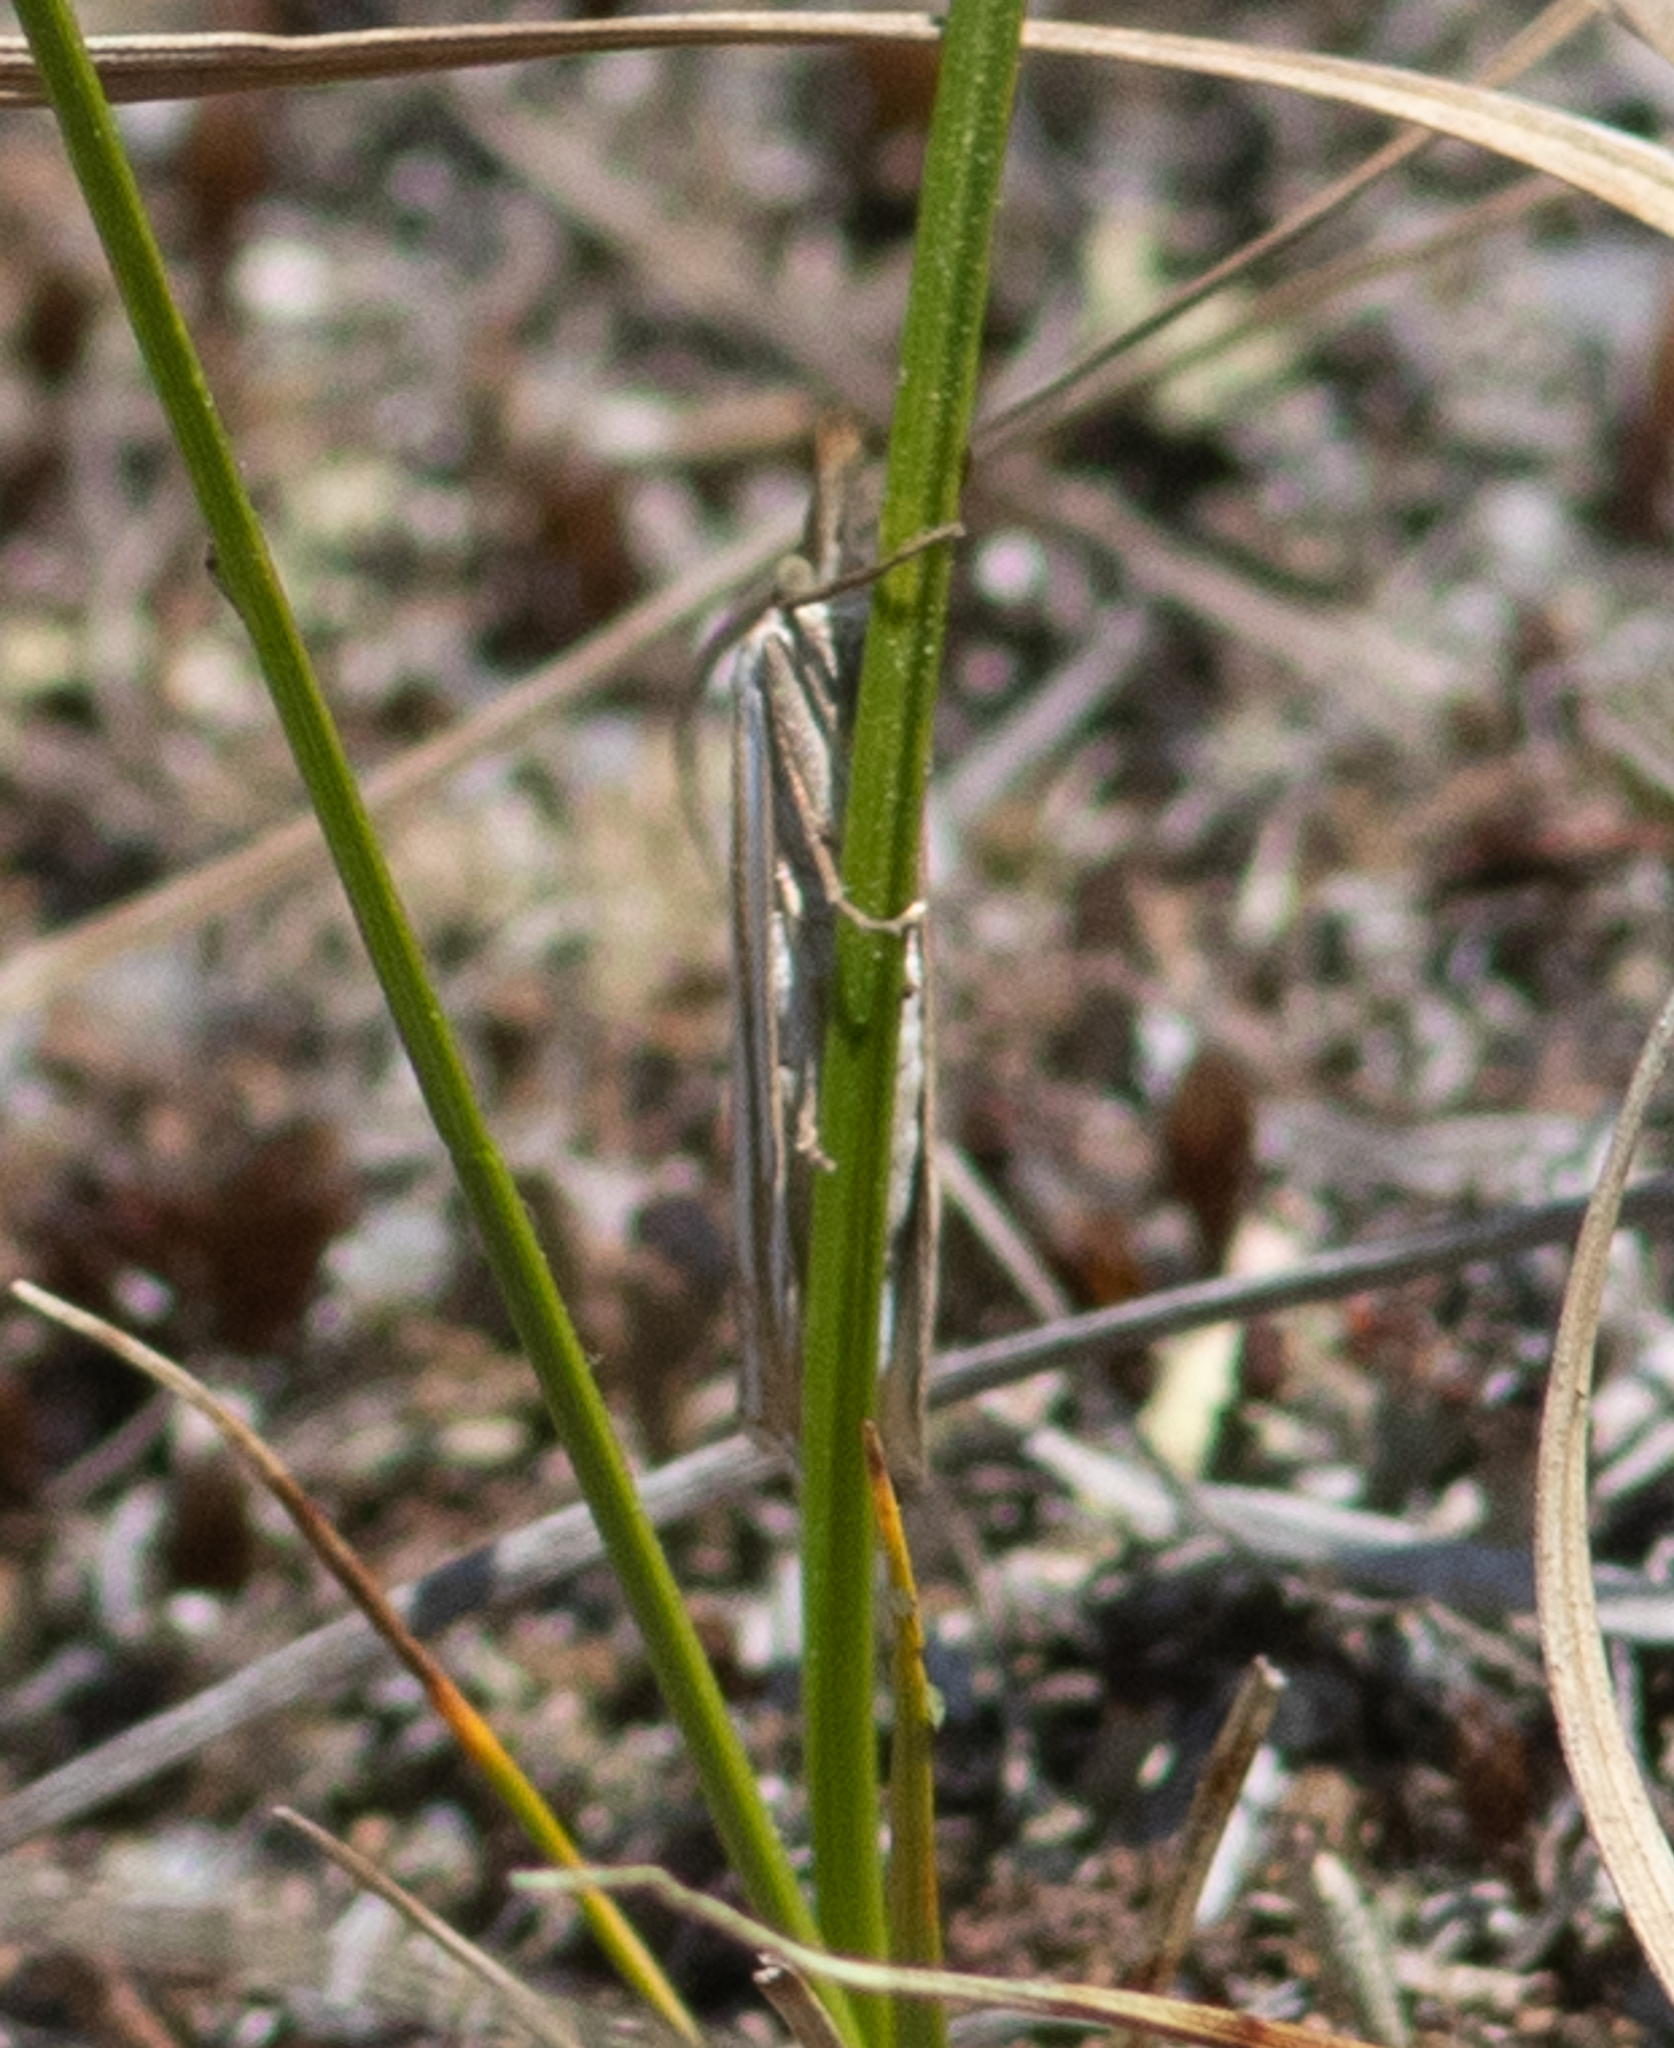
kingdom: Animalia
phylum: Arthropoda
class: Insecta
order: Lepidoptera
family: Crambidae
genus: Crambus
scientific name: Crambus
